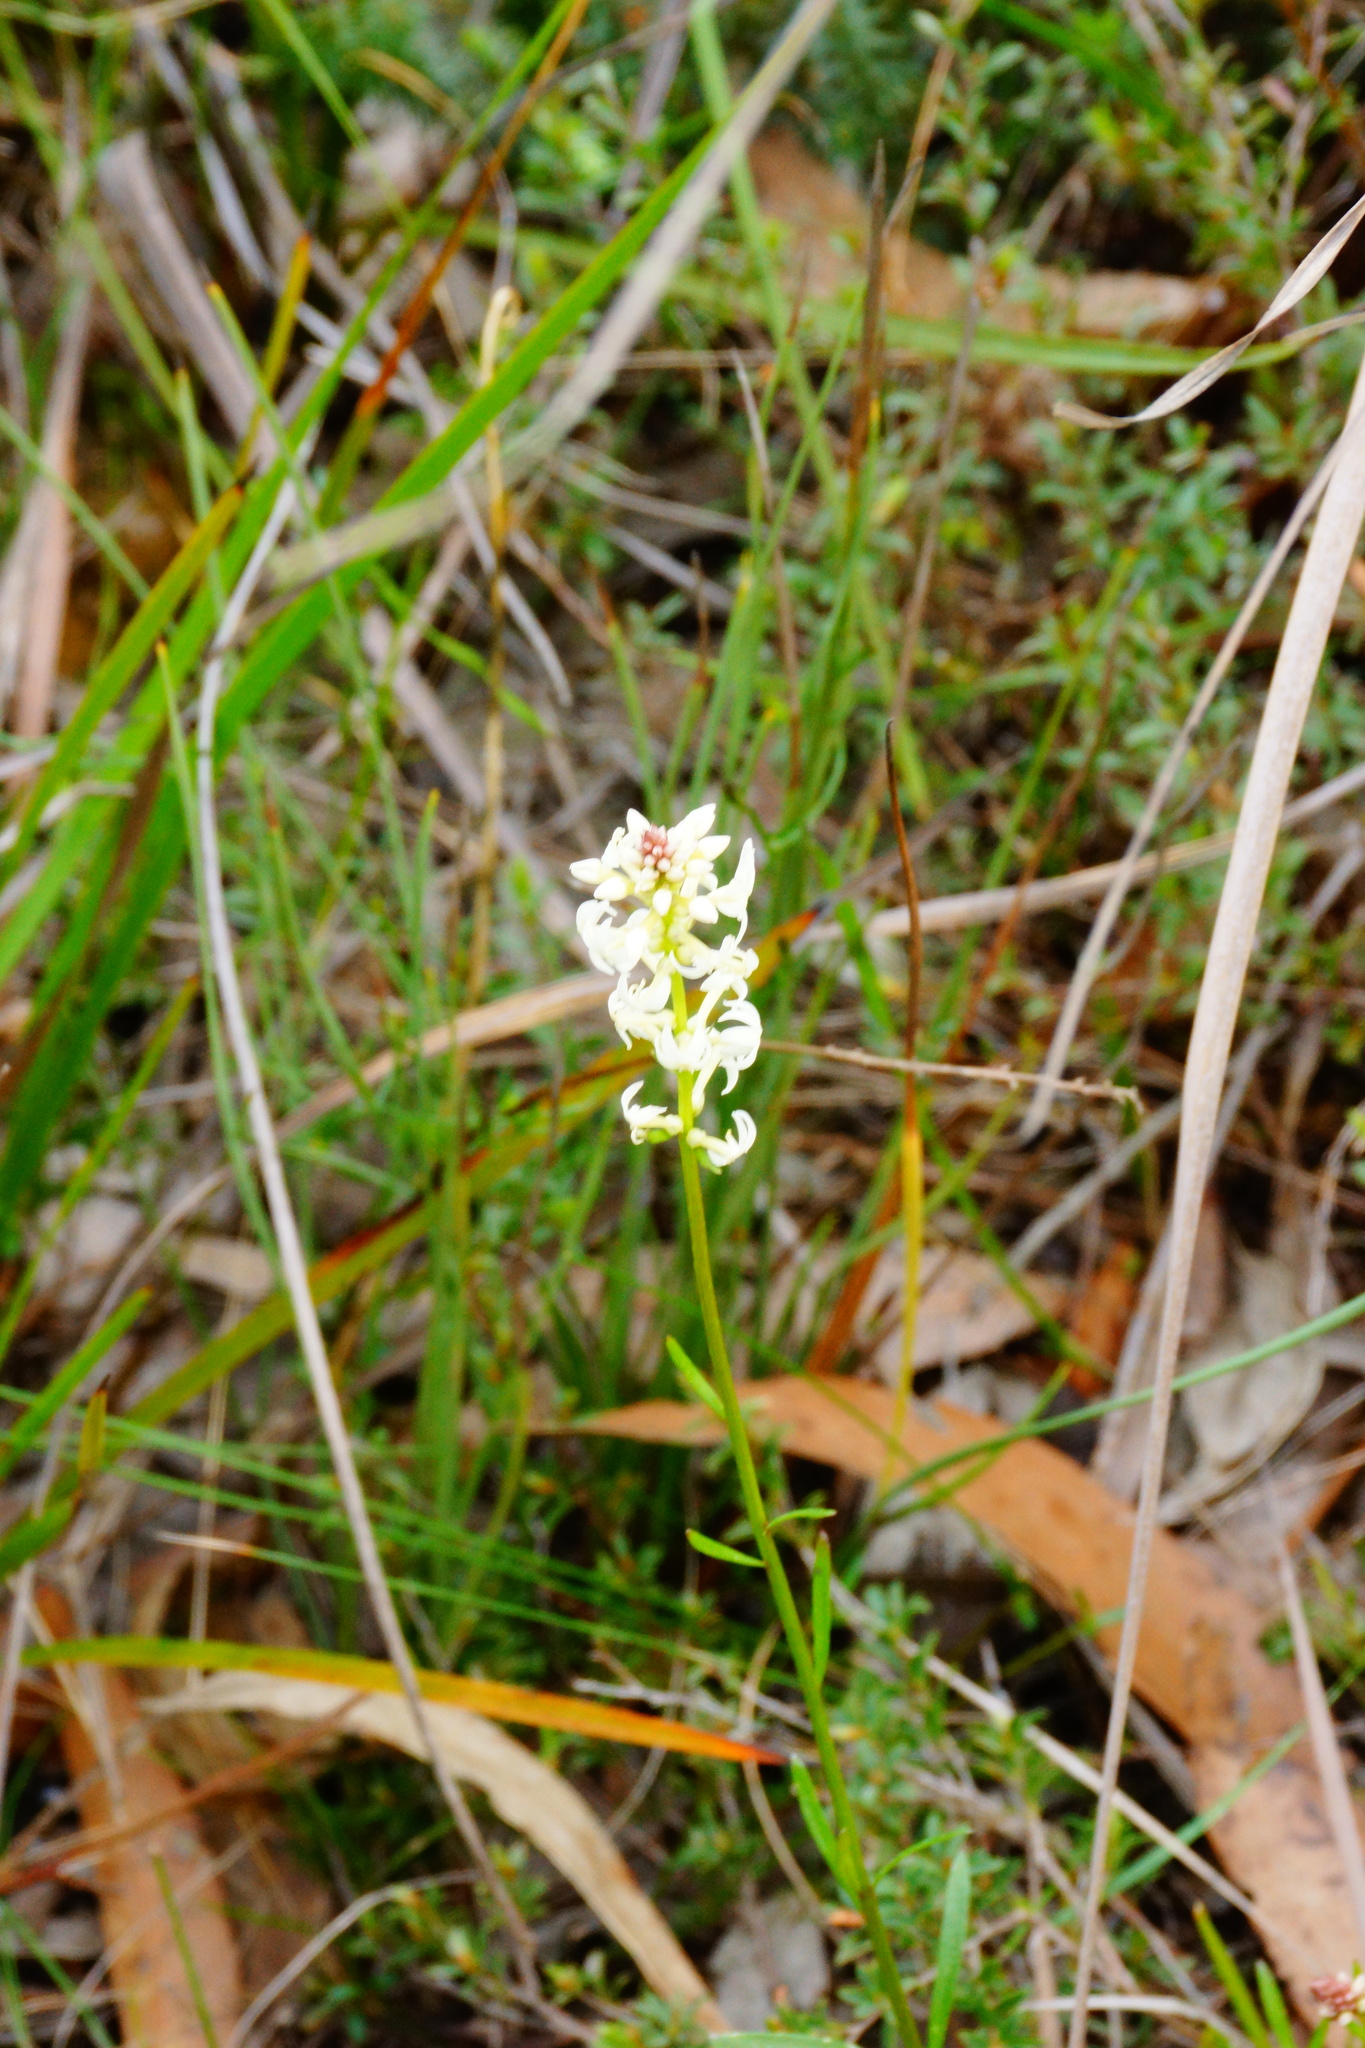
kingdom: Plantae
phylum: Tracheophyta
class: Magnoliopsida
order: Celastrales
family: Celastraceae
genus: Stackhousia
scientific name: Stackhousia monogyna
